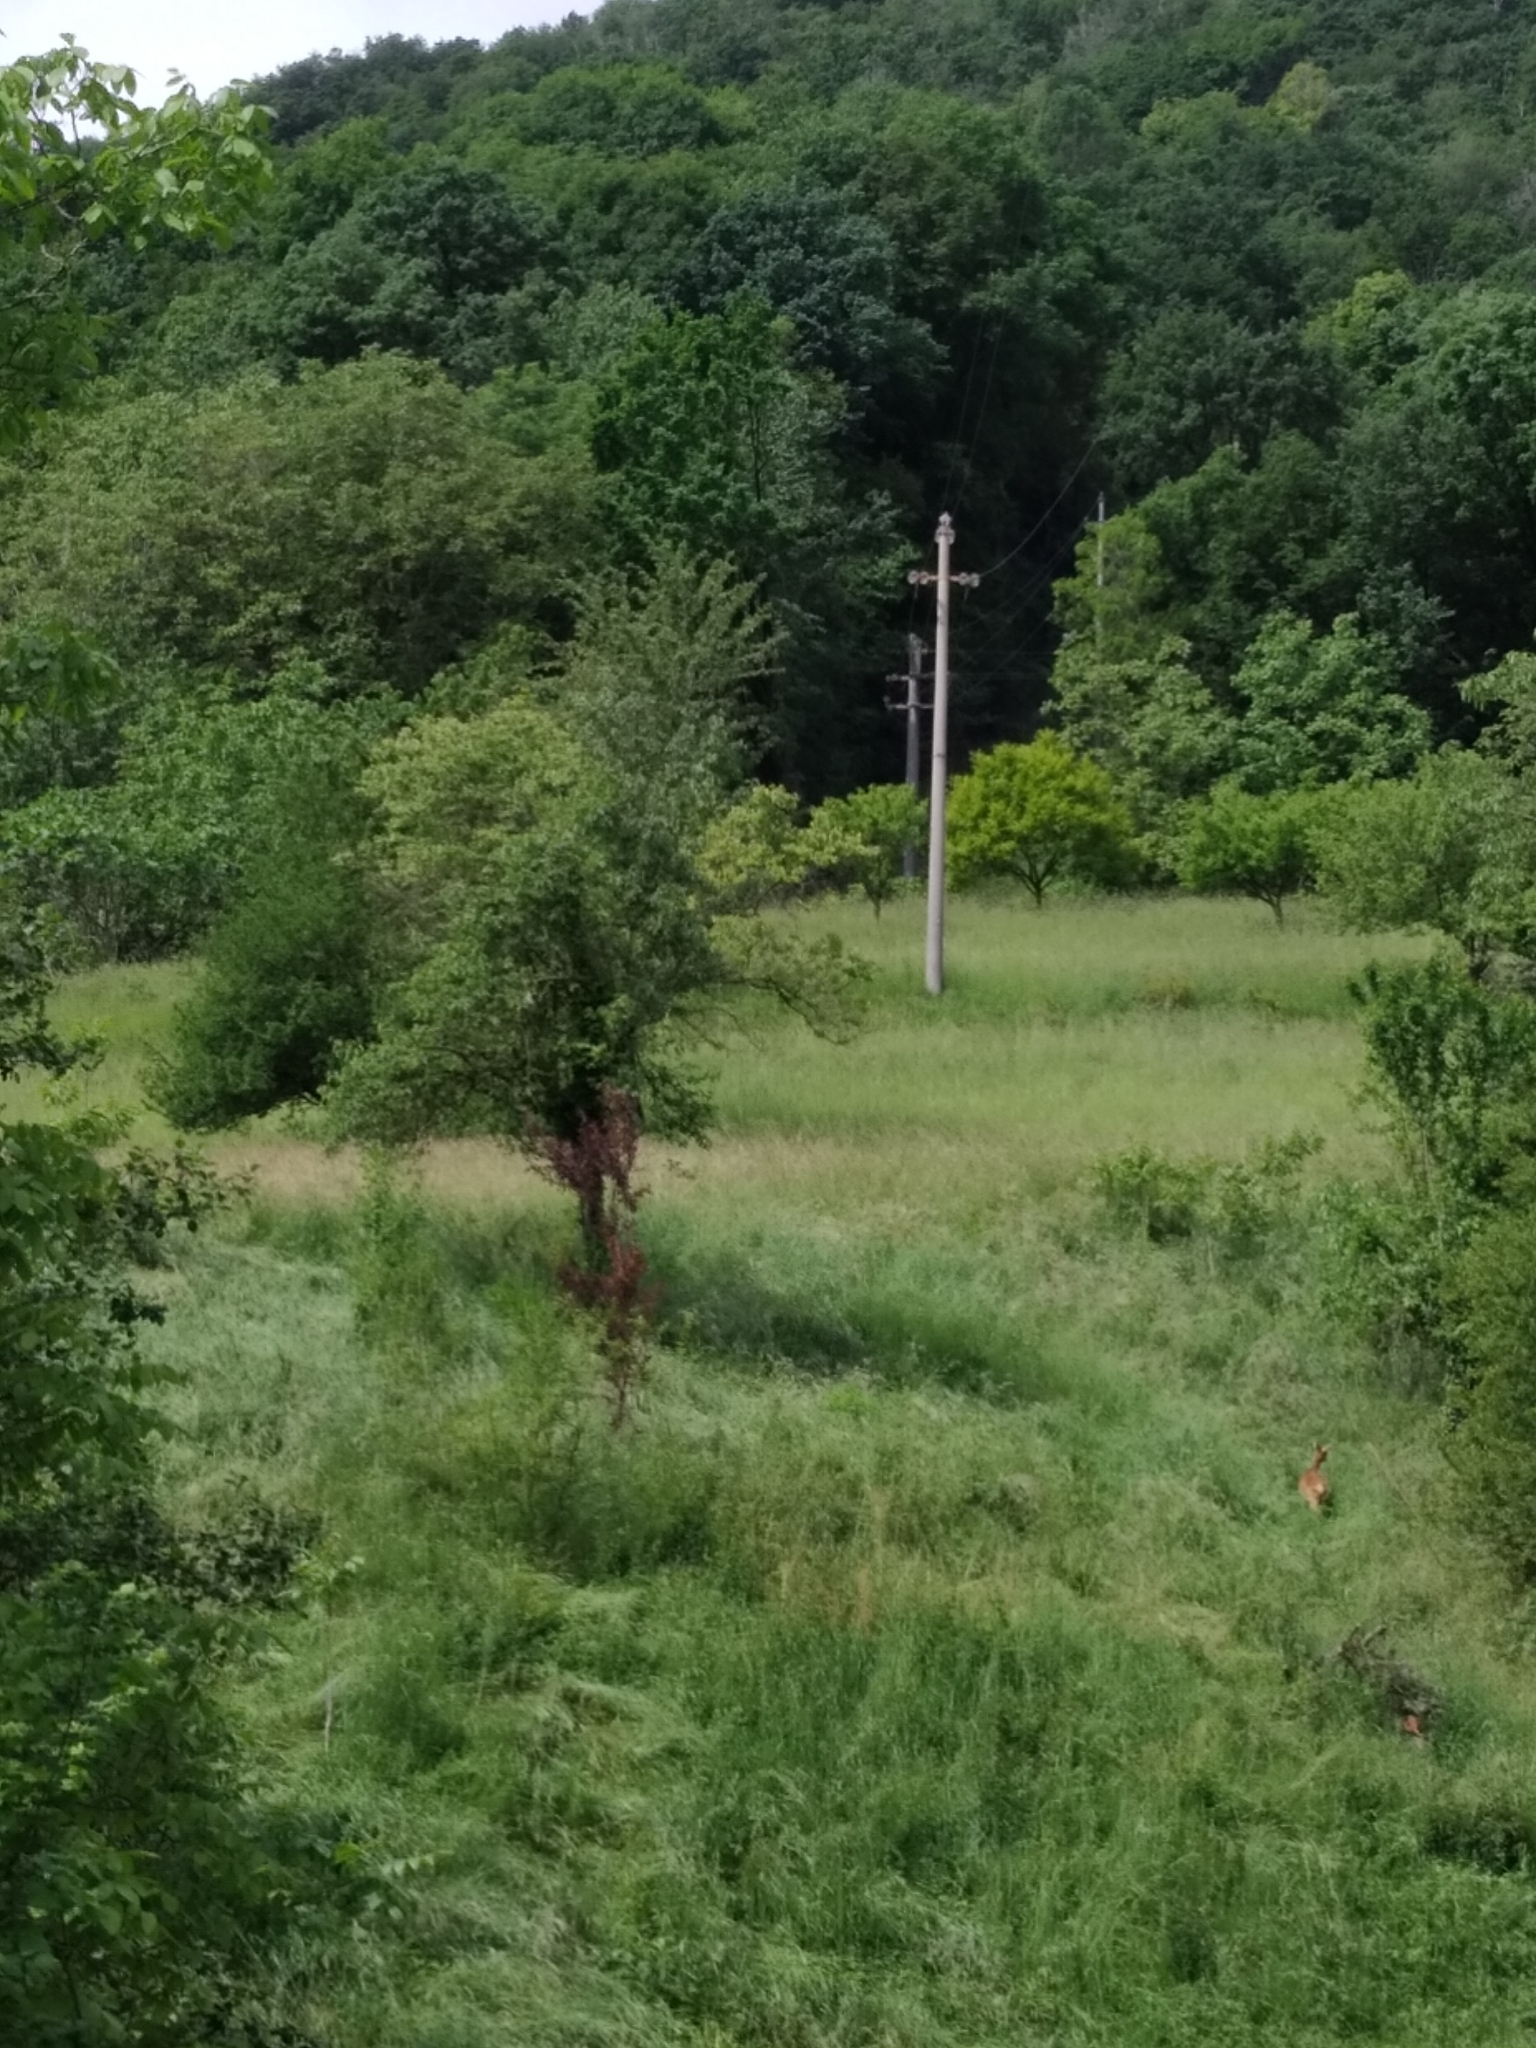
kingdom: Animalia
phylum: Chordata
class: Mammalia
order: Artiodactyla
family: Cervidae
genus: Capreolus
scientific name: Capreolus capreolus
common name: Western roe deer
